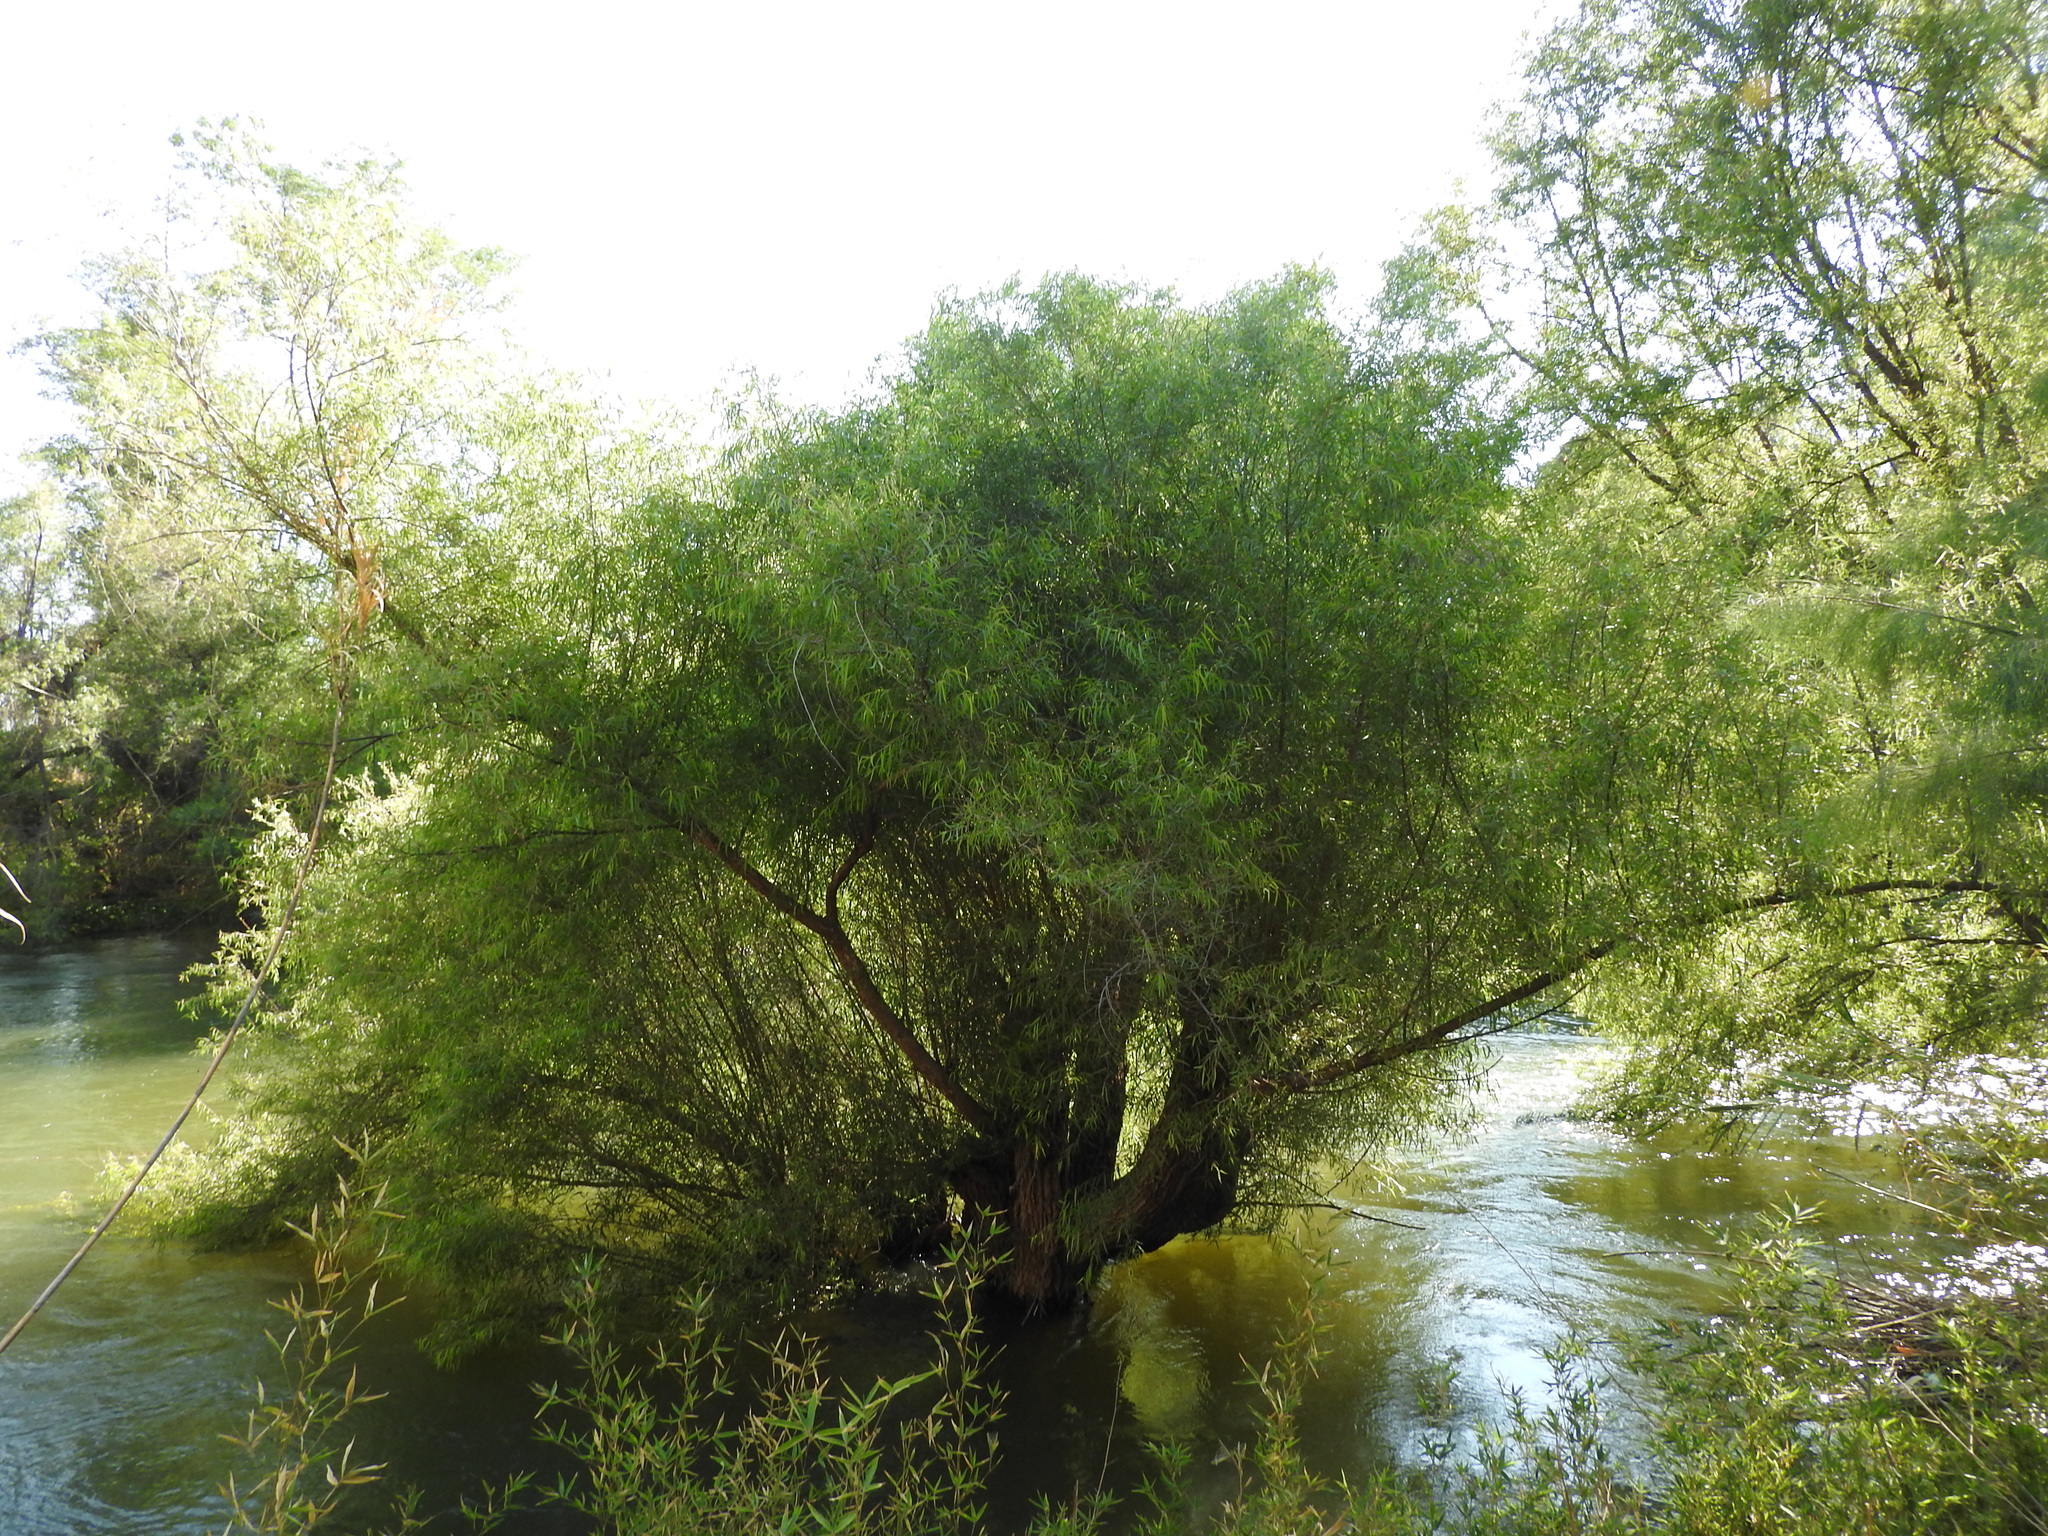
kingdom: Plantae
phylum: Tracheophyta
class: Magnoliopsida
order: Malpighiales
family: Salicaceae
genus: Salix
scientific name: Salix humboldtiana
